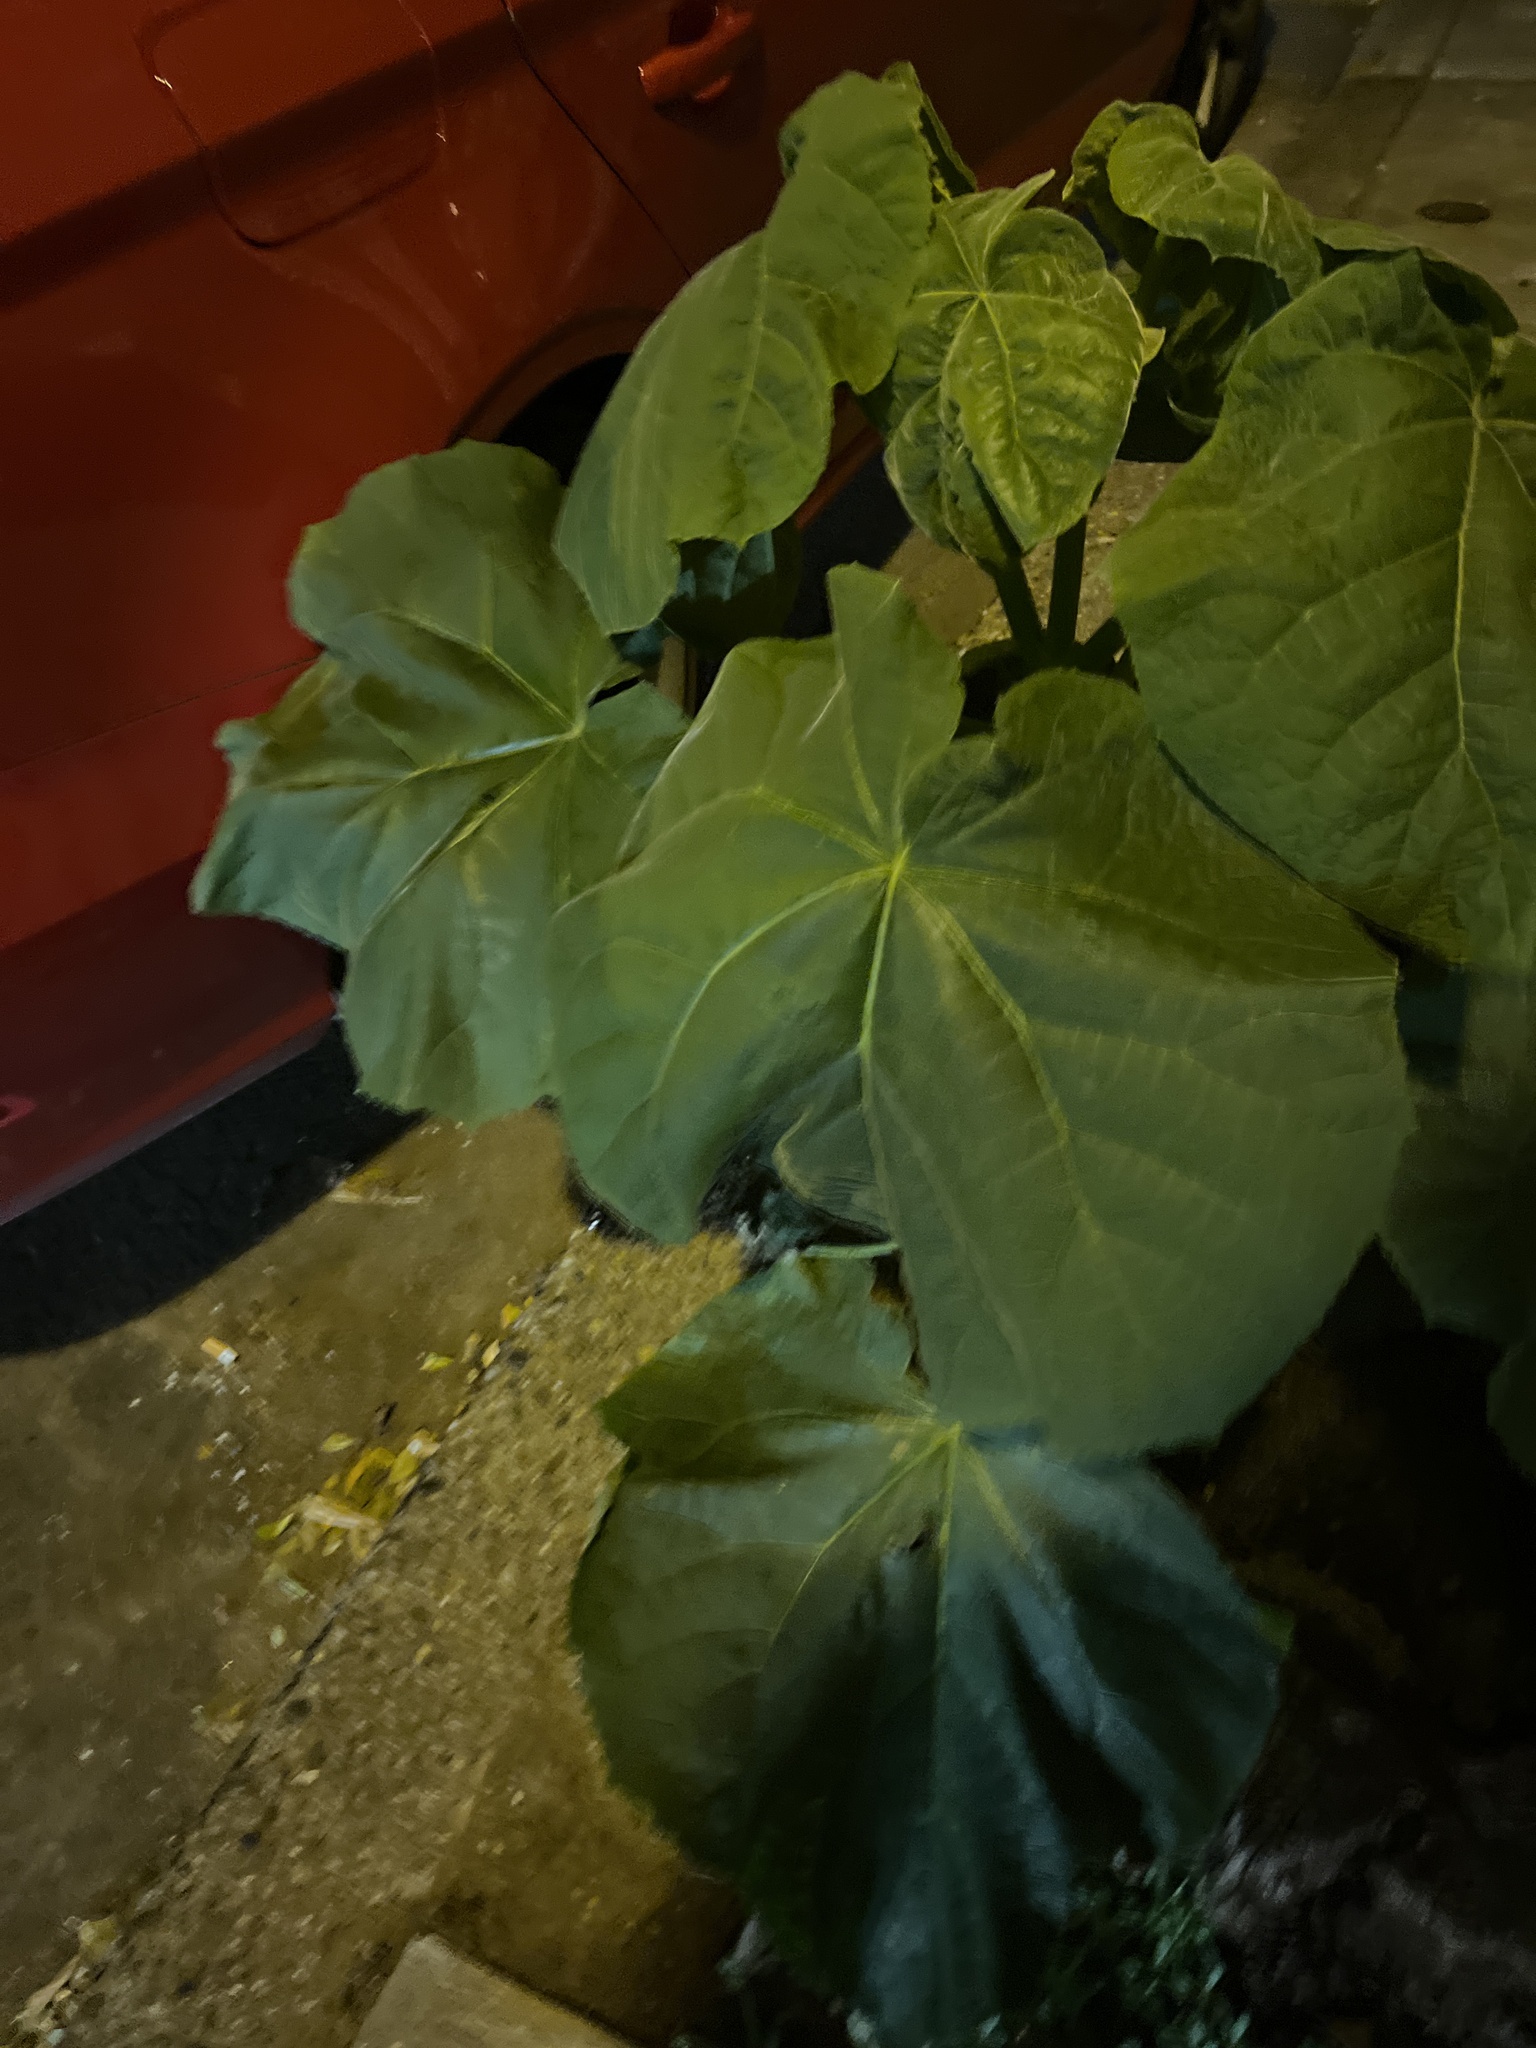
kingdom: Plantae
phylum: Tracheophyta
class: Magnoliopsida
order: Lamiales
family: Paulowniaceae
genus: Paulownia
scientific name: Paulownia tomentosa
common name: Foxglove-tree
